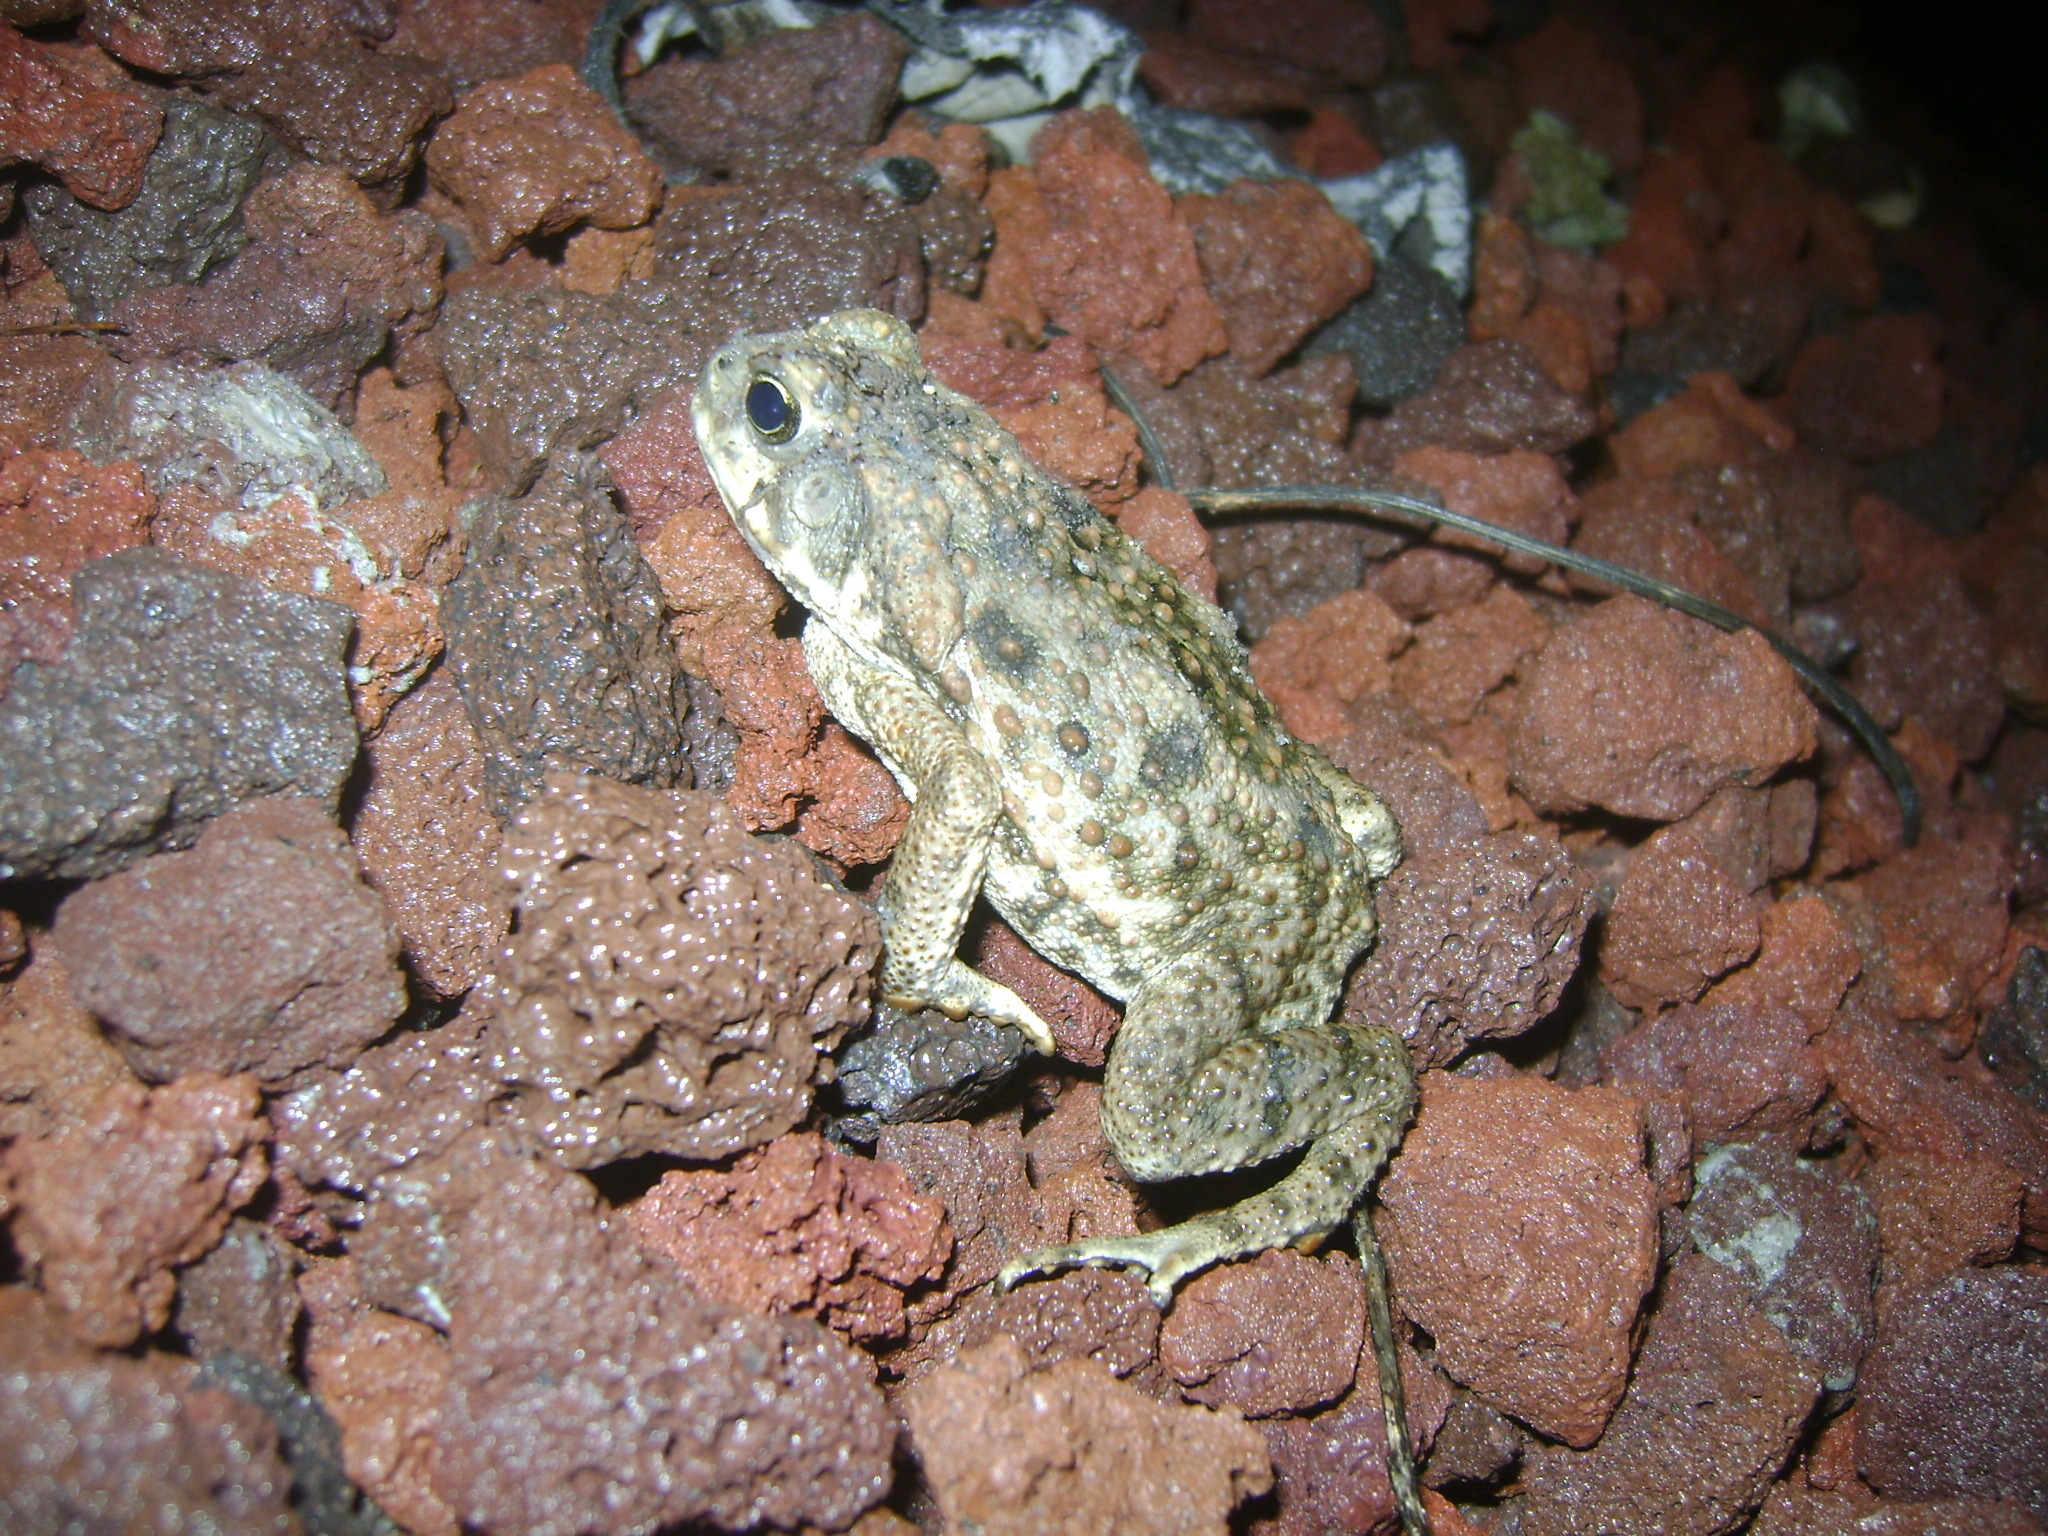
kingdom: Animalia
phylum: Chordata
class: Amphibia
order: Anura
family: Bufonidae
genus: Rhinella
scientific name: Rhinella horribilis
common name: Mesoamerican cane toad
